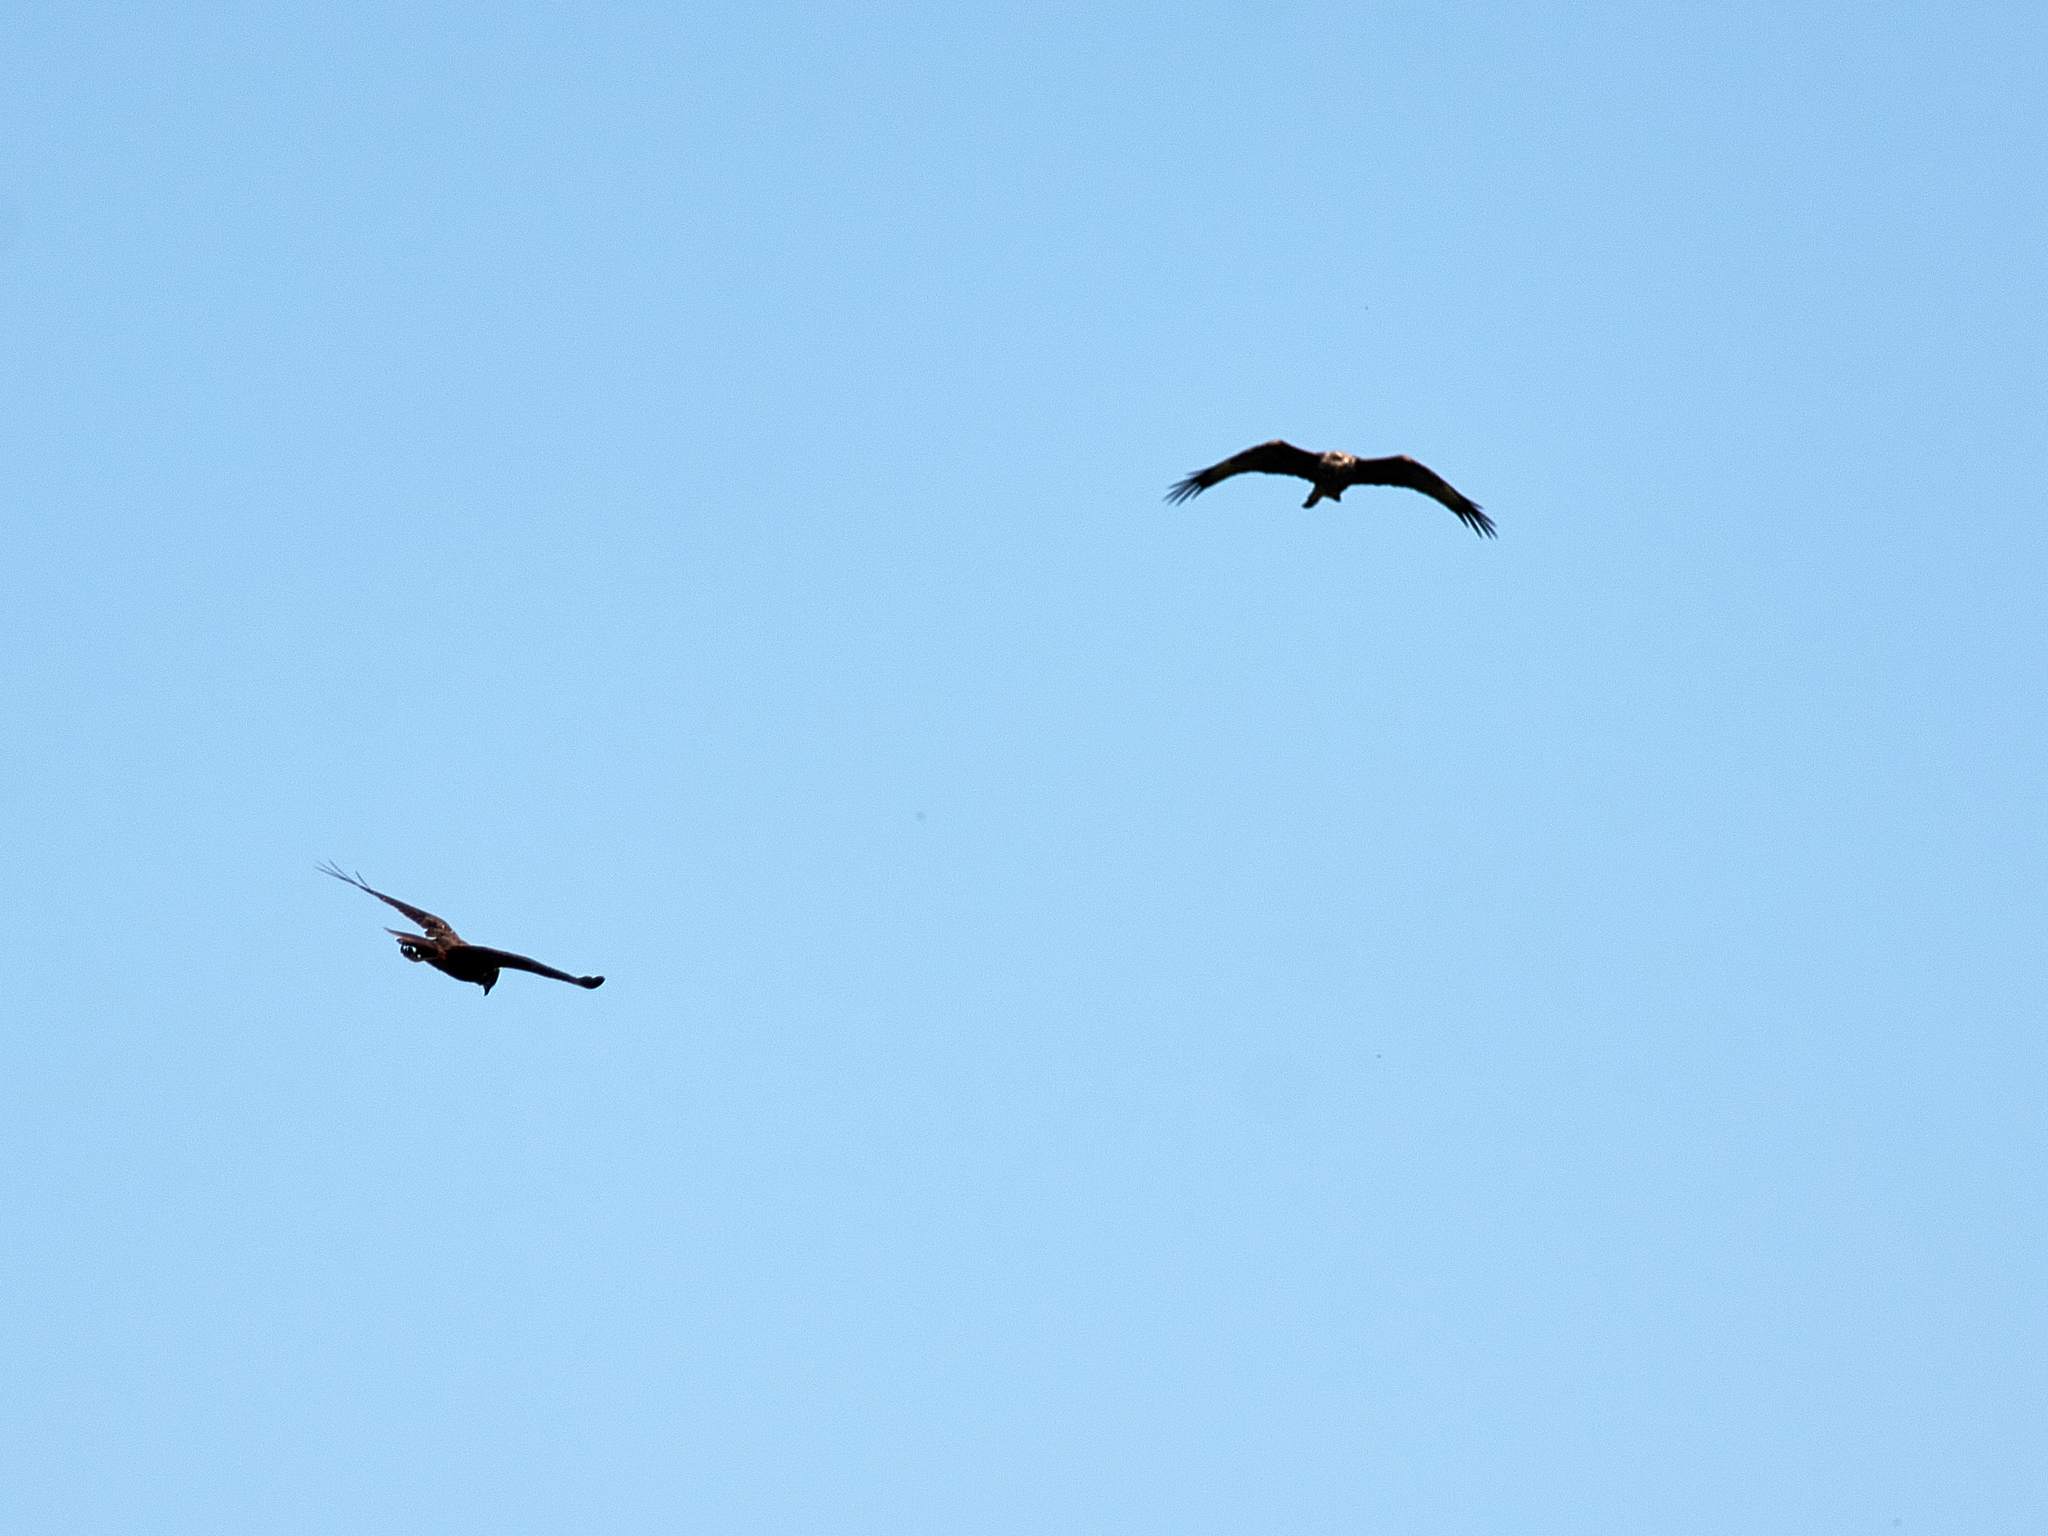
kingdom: Animalia
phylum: Chordata
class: Aves
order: Accipitriformes
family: Accipitridae
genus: Milvus
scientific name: Milvus migrans
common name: Black kite
